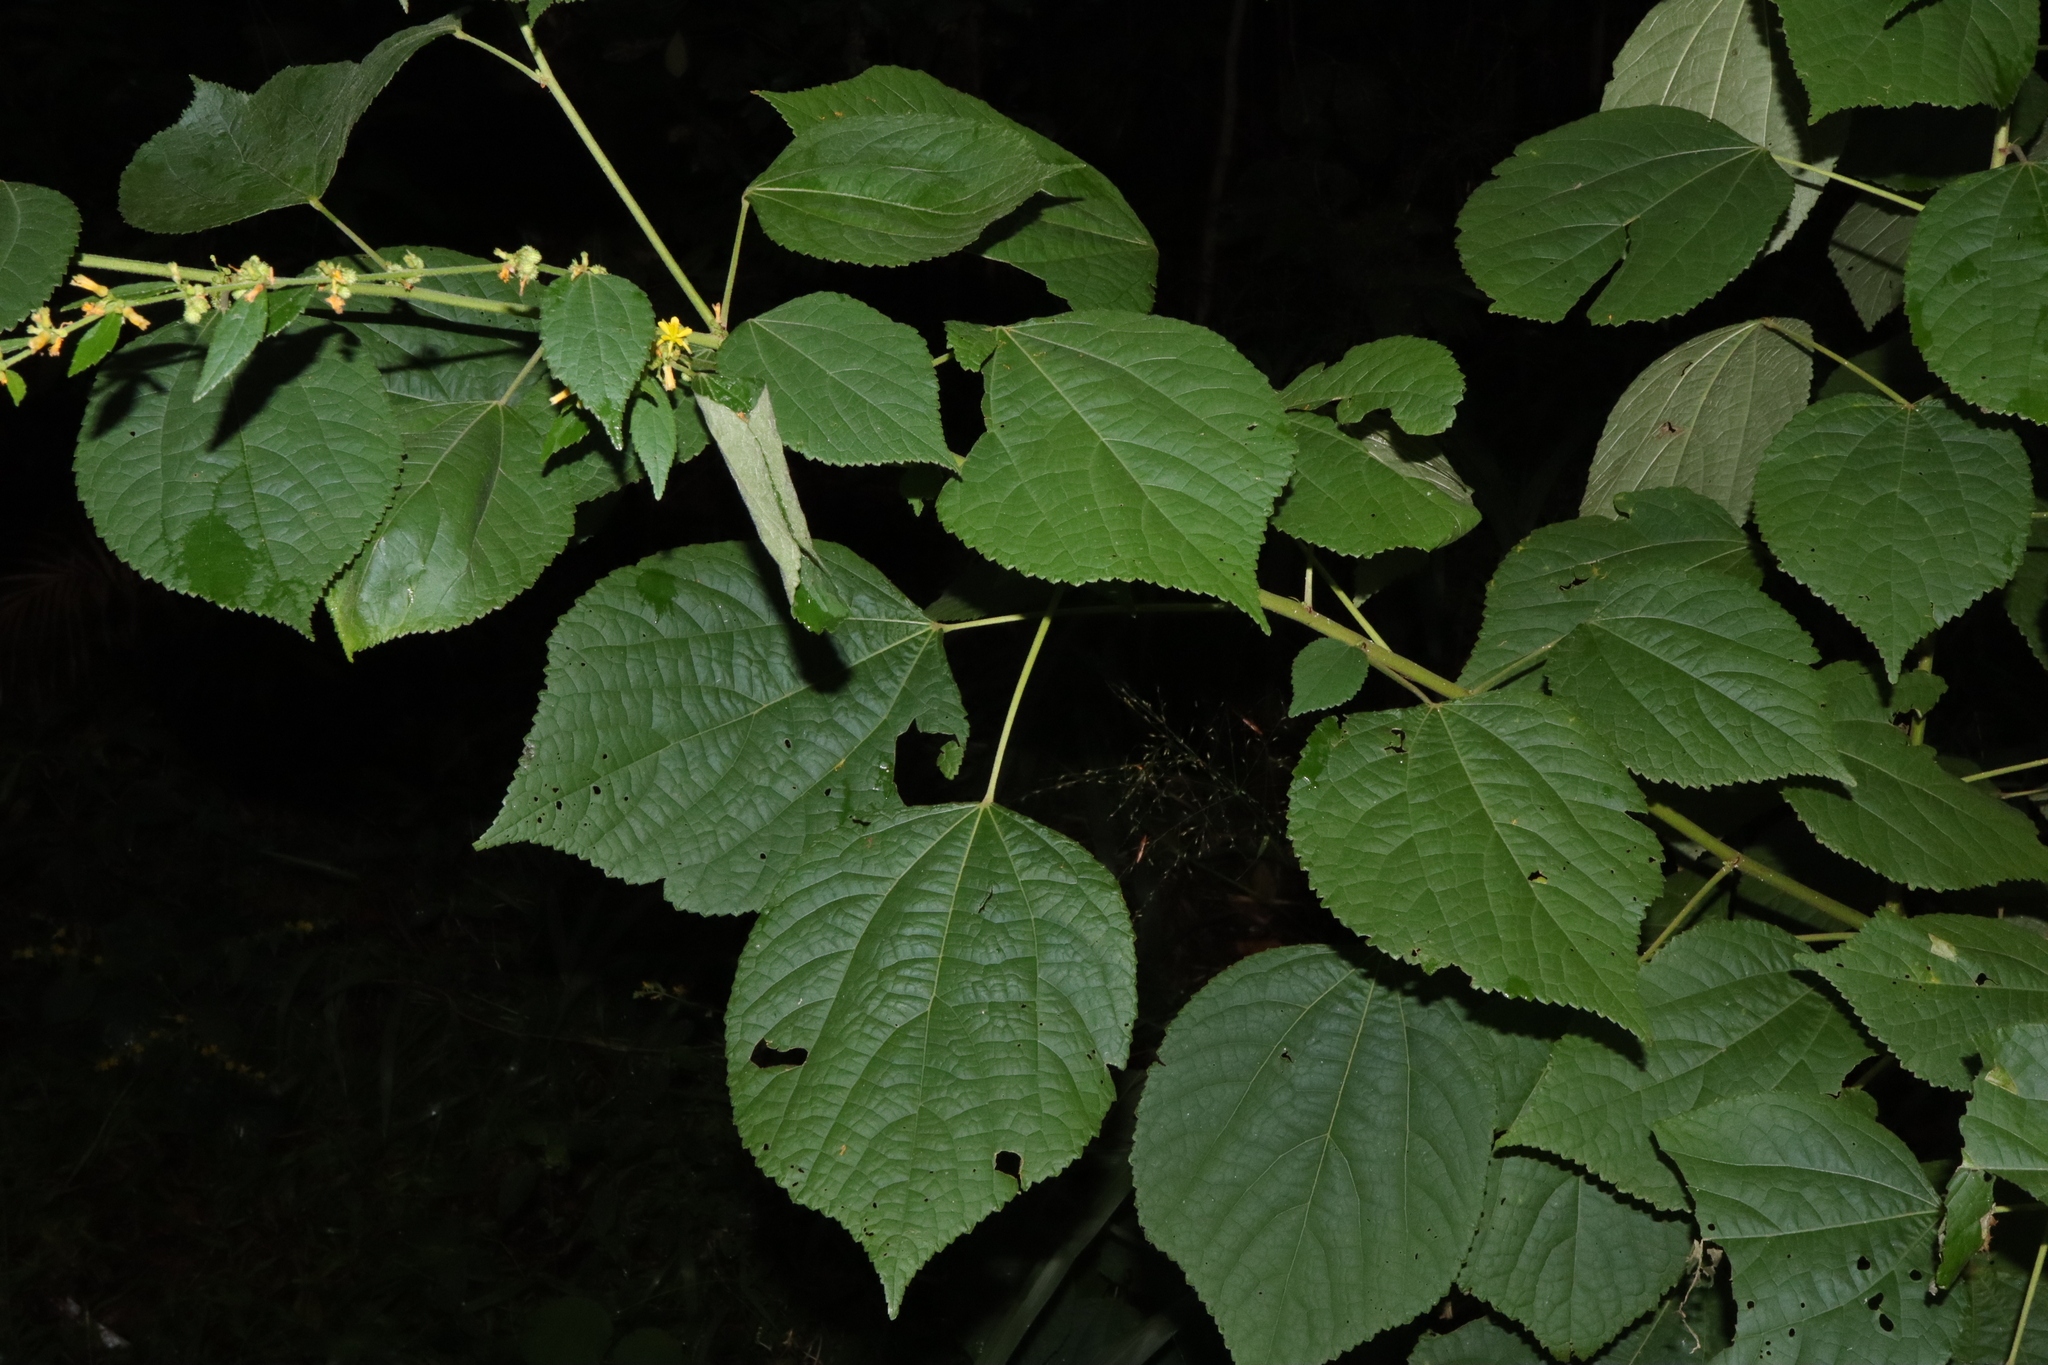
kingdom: Plantae
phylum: Tracheophyta
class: Magnoliopsida
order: Malvales
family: Malvaceae
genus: Triumfetta
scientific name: Triumfetta rhomboidea
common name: Diamond burbark
